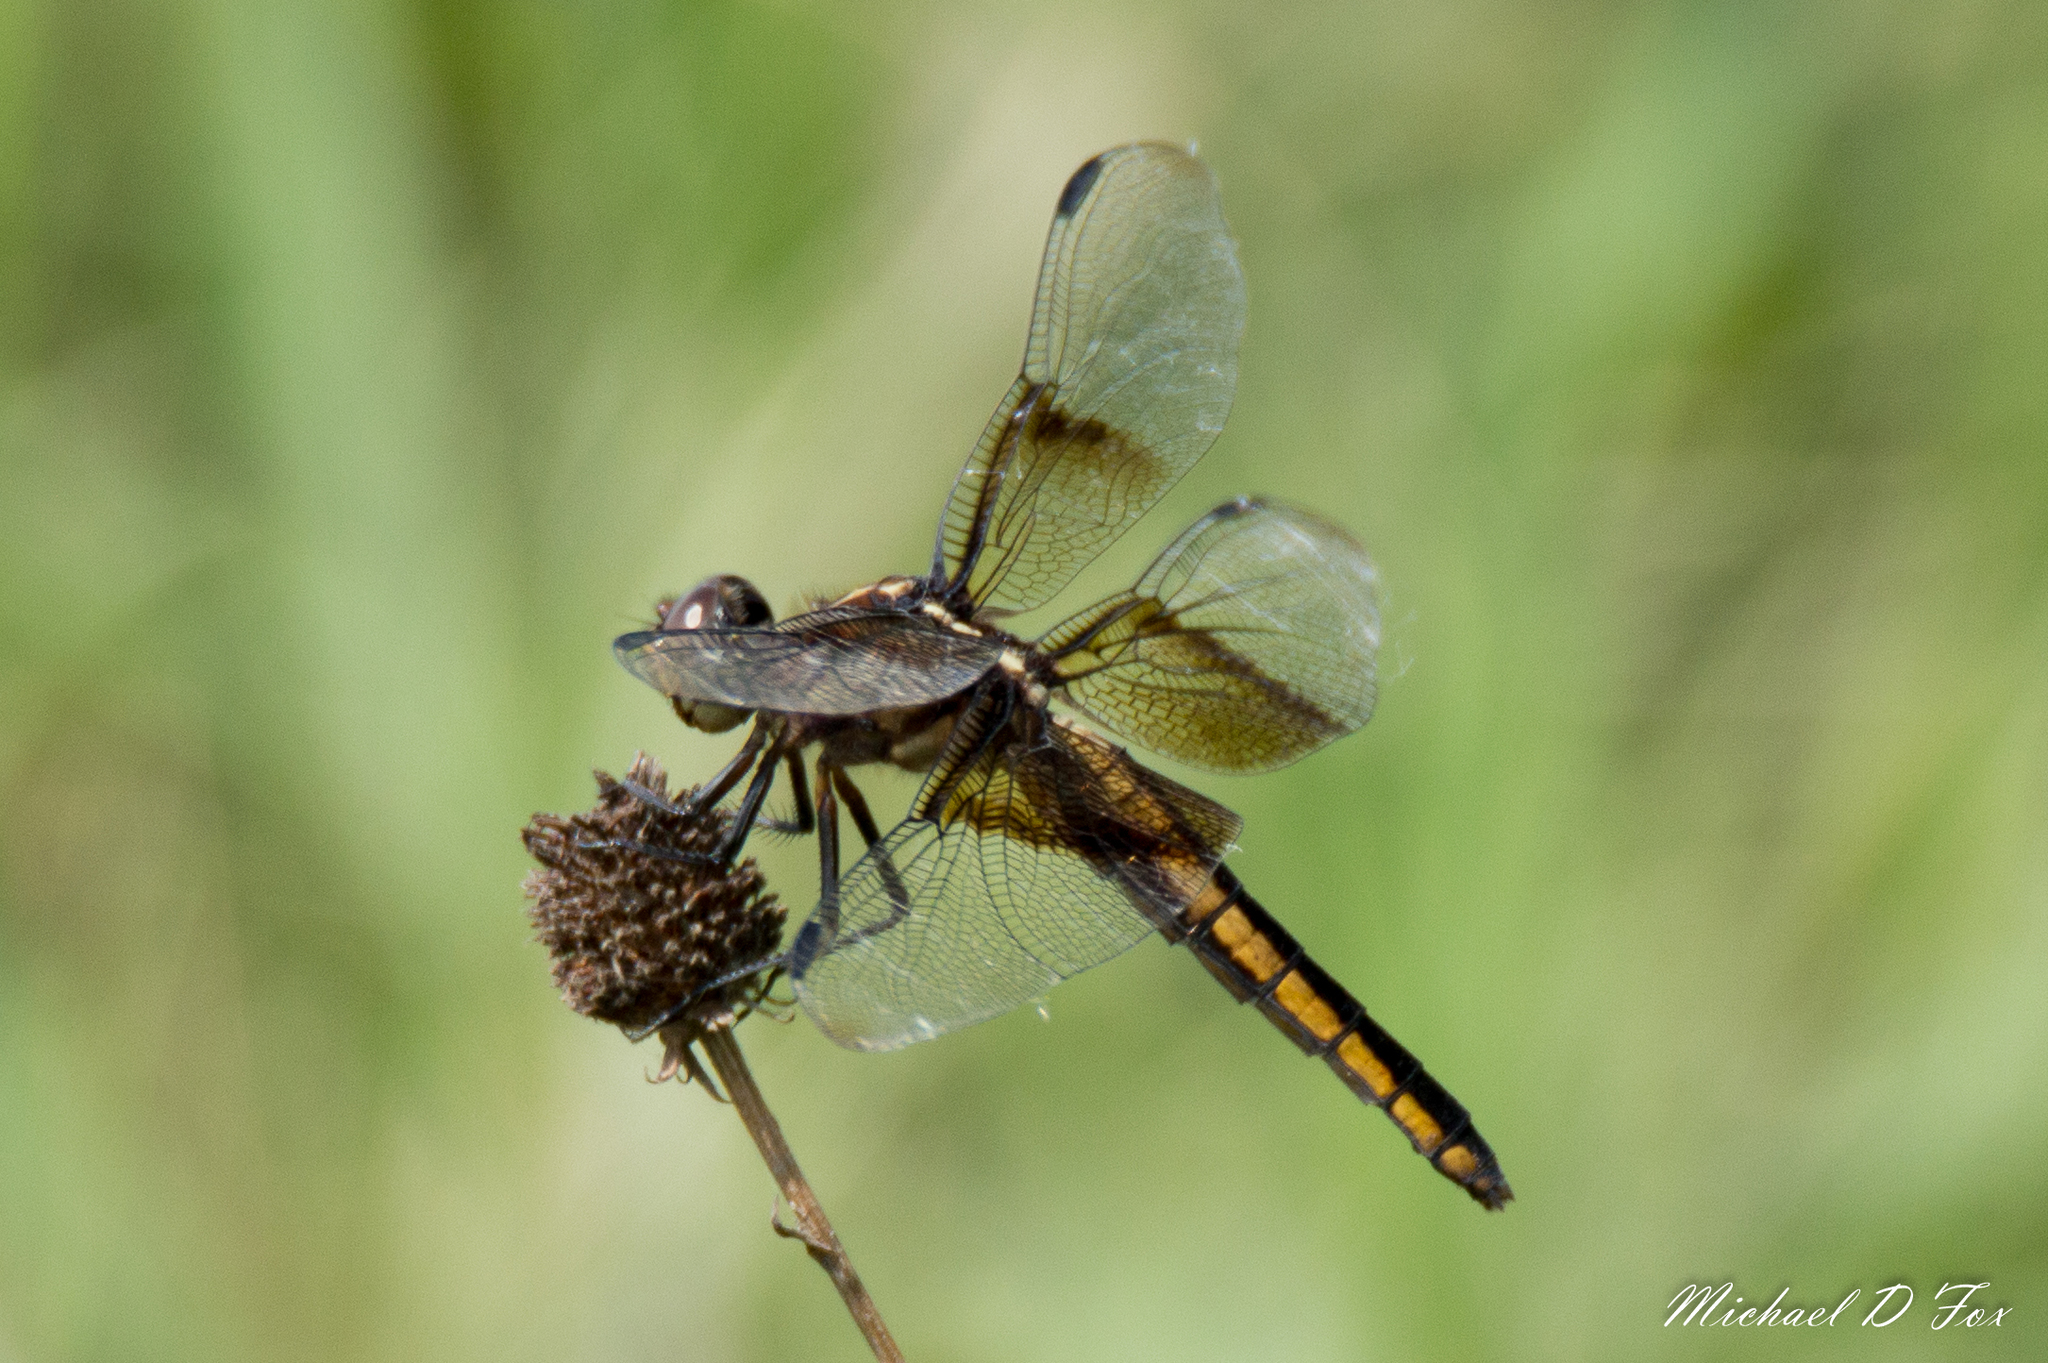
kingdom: Animalia
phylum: Arthropoda
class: Insecta
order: Odonata
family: Libellulidae
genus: Libellula
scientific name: Libellula luctuosa
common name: Widow skimmer
